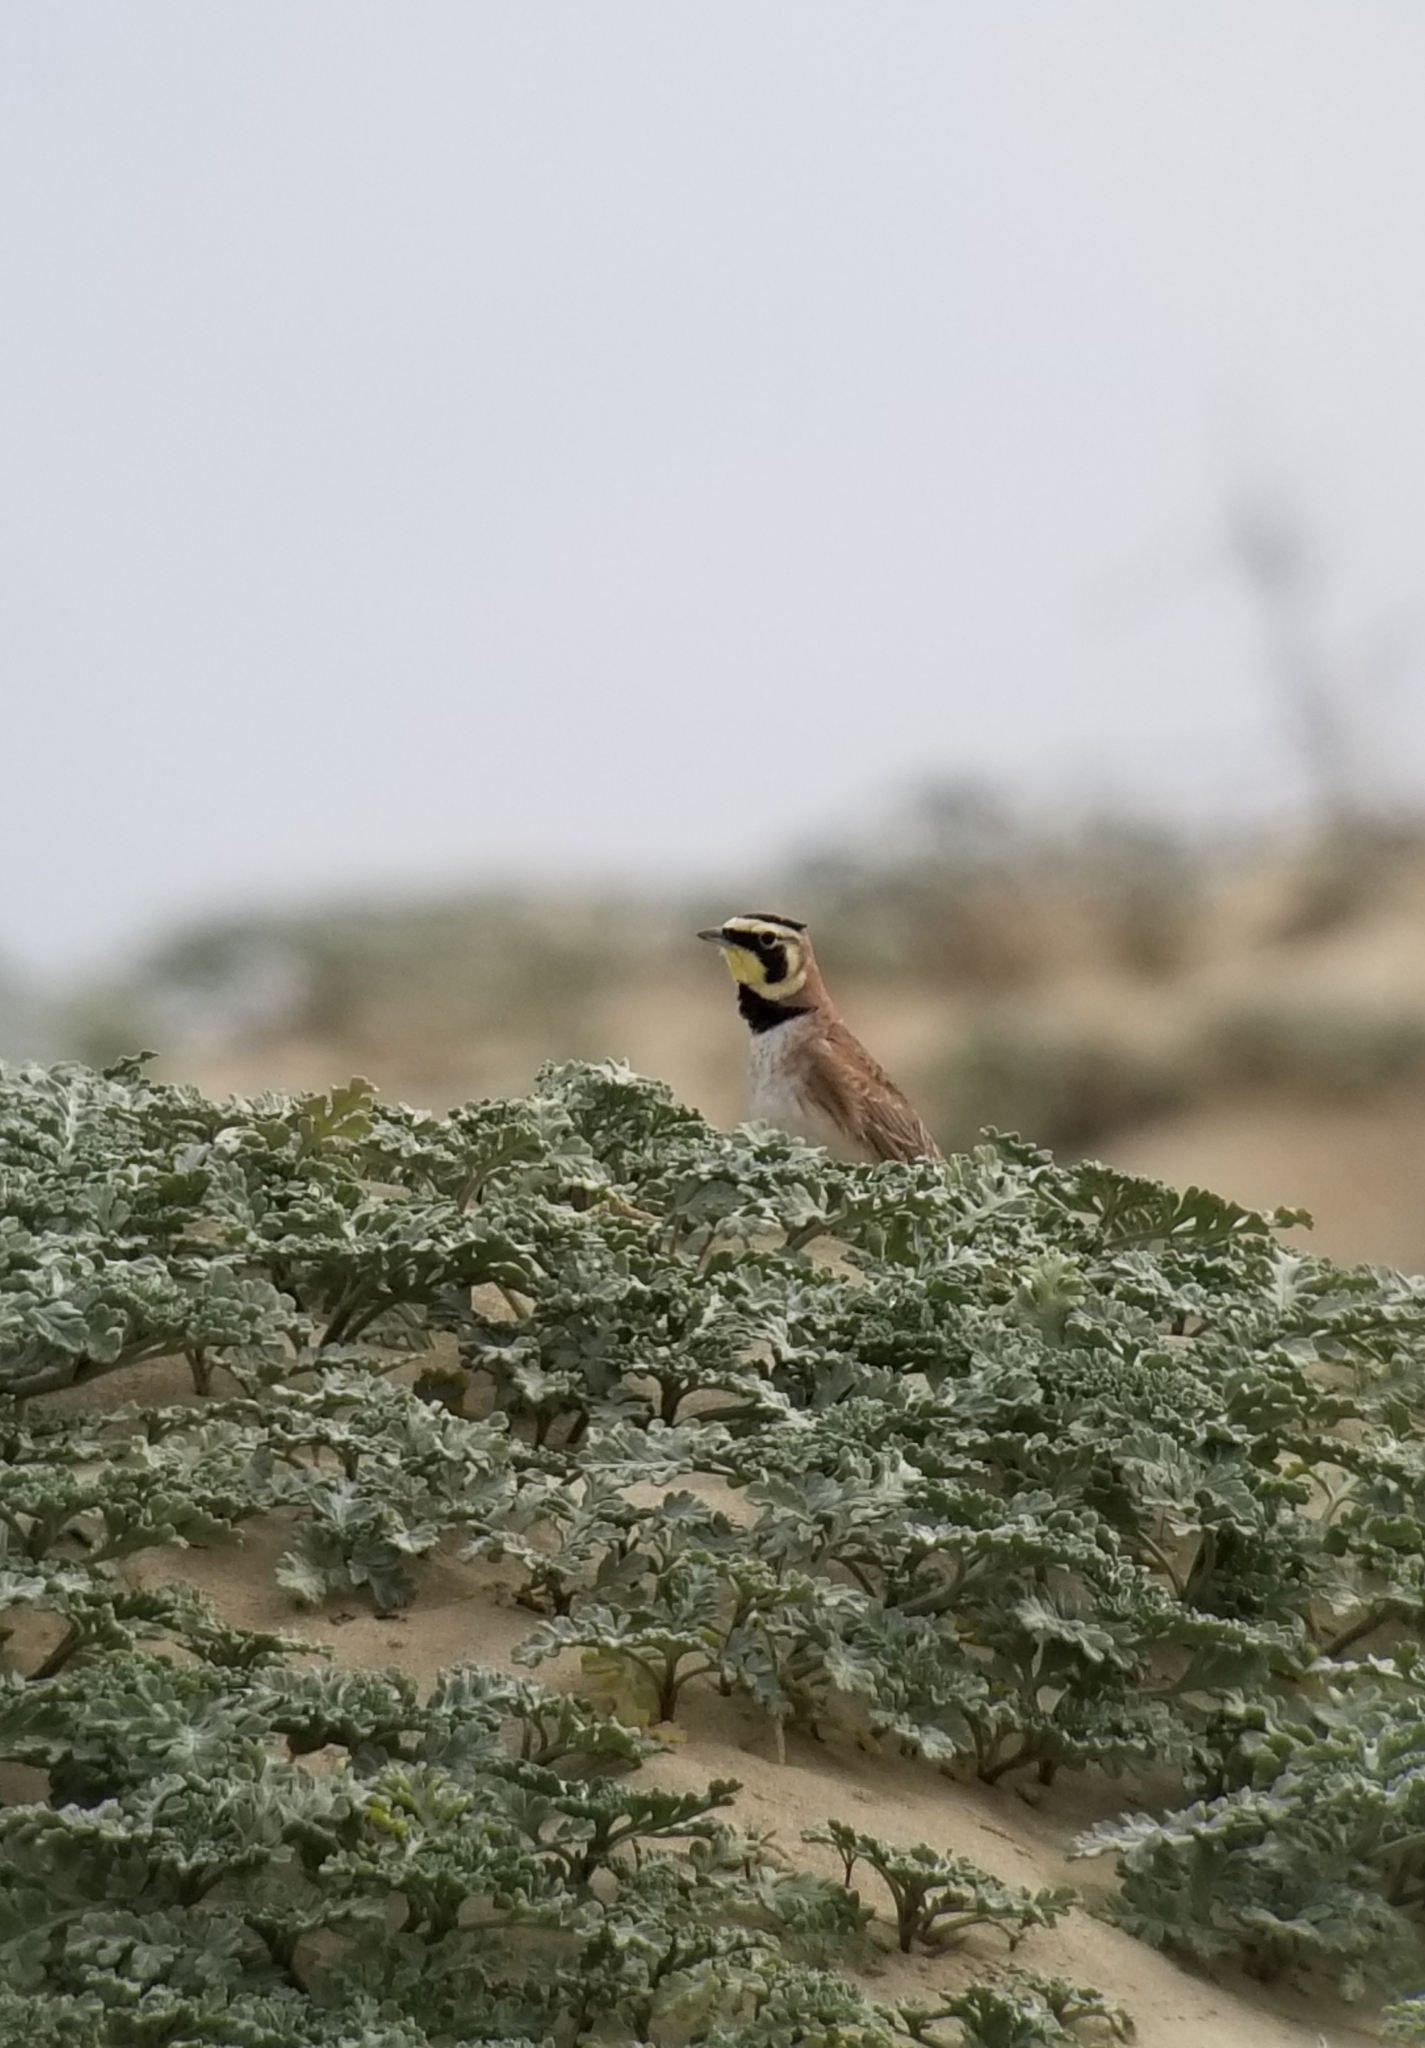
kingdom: Animalia
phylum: Chordata
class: Aves
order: Passeriformes
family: Alaudidae
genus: Eremophila
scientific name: Eremophila alpestris
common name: Horned lark
